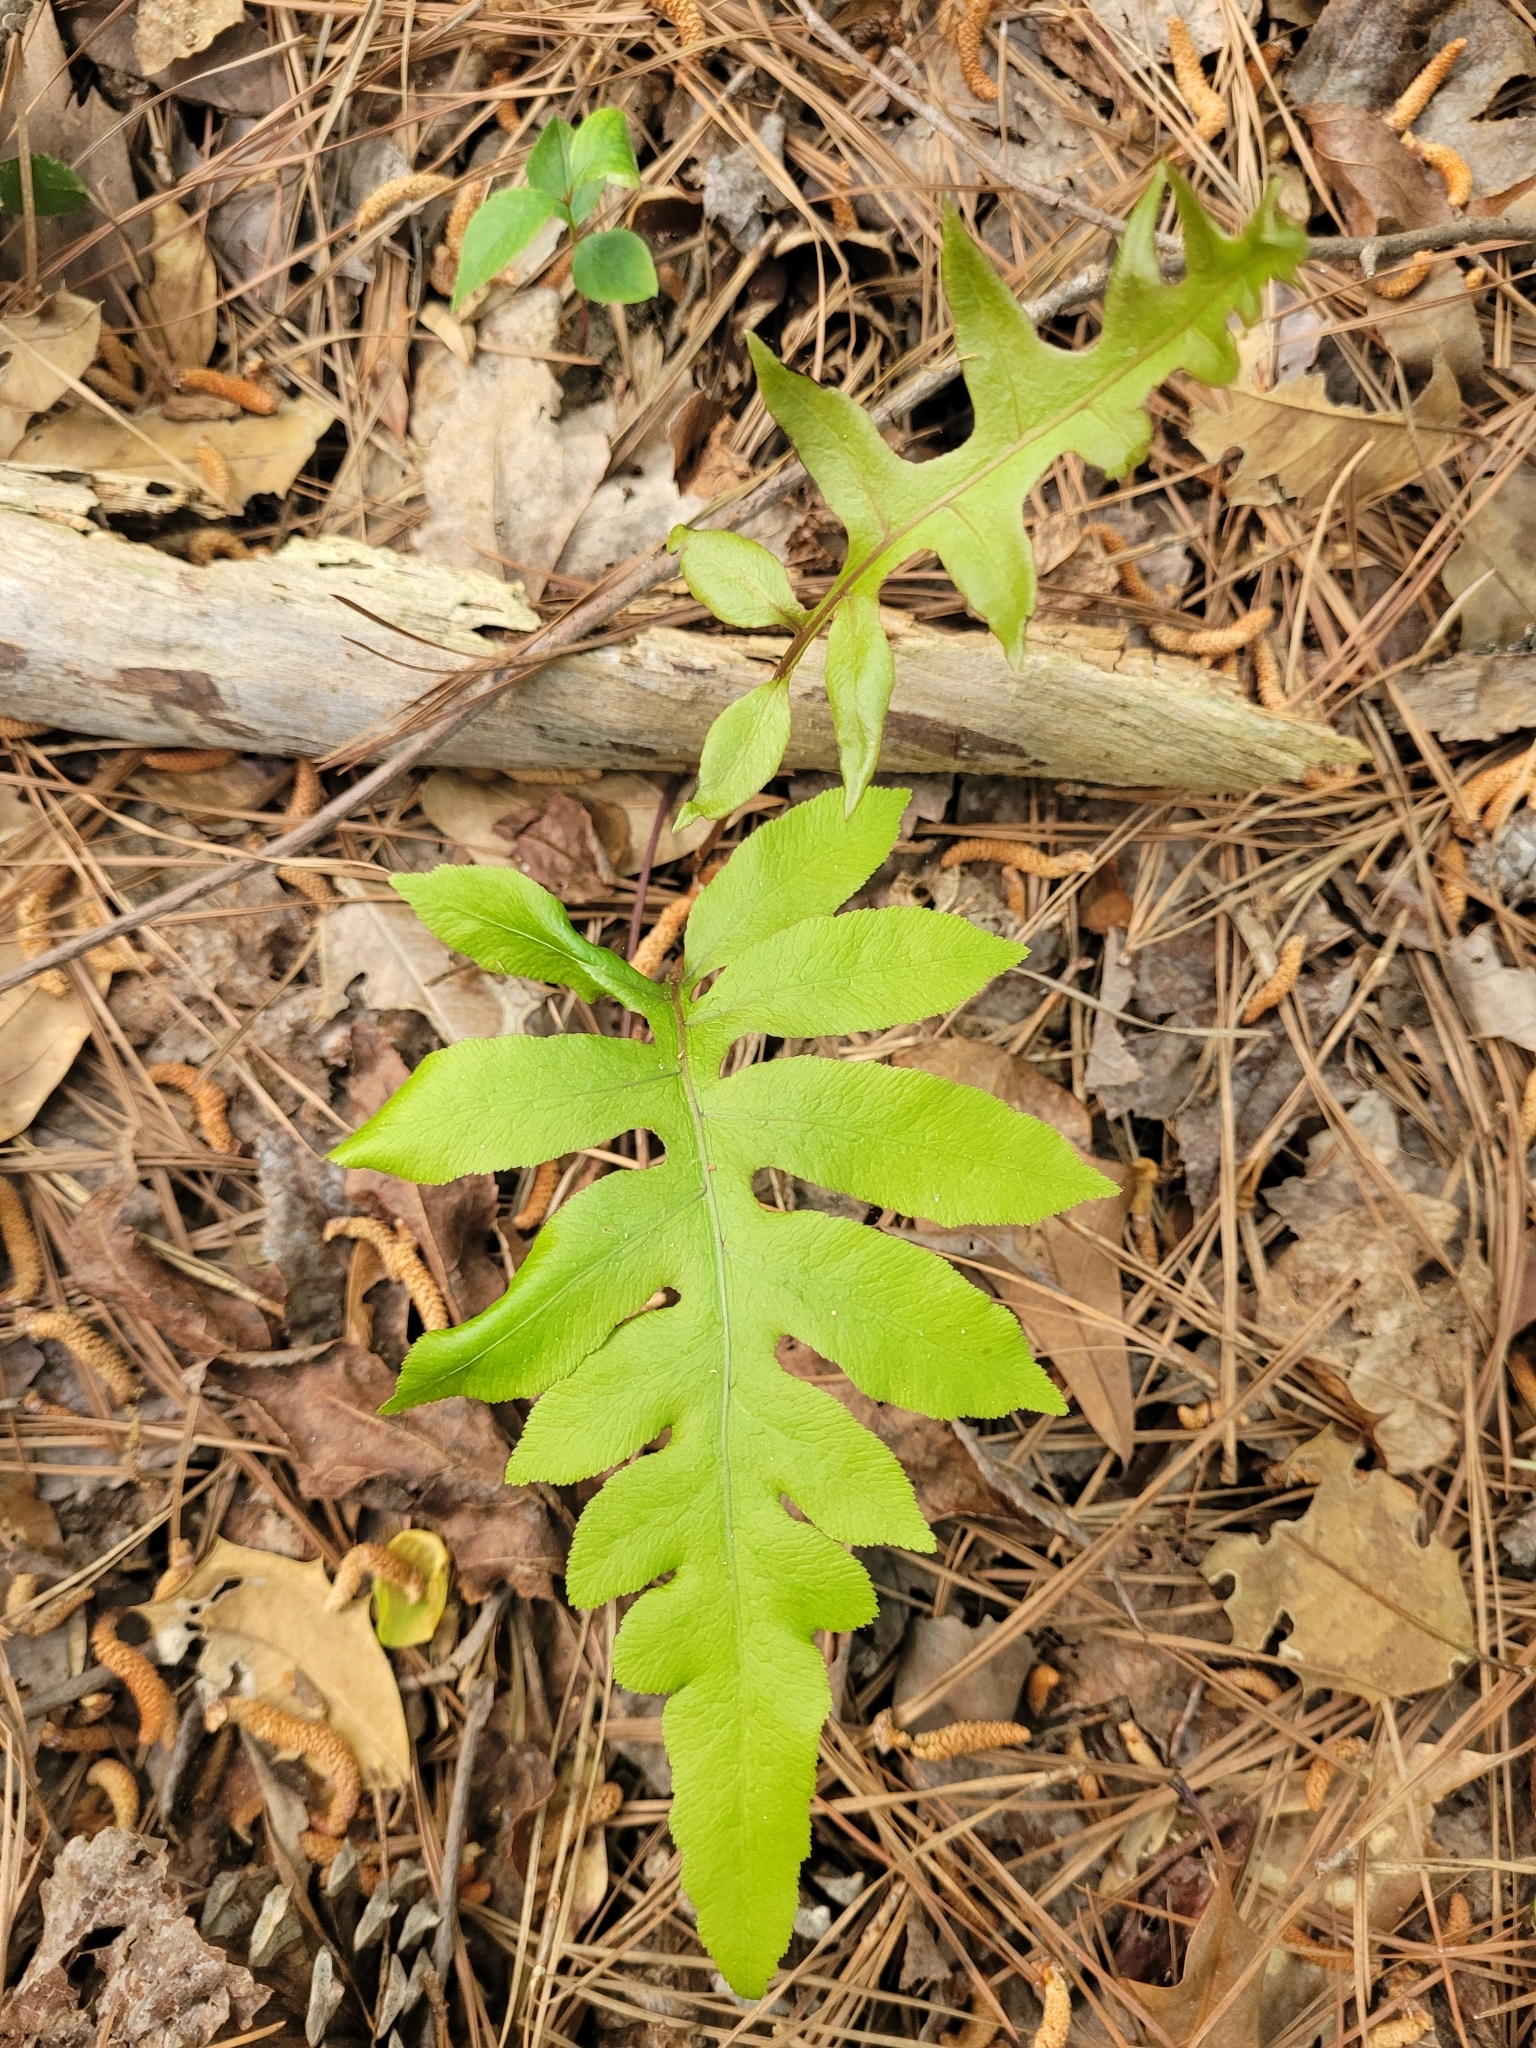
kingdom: Plantae
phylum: Tracheophyta
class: Polypodiopsida
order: Polypodiales
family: Blechnaceae
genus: Lorinseria
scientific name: Lorinseria areolata
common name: Dwarf chain fern
